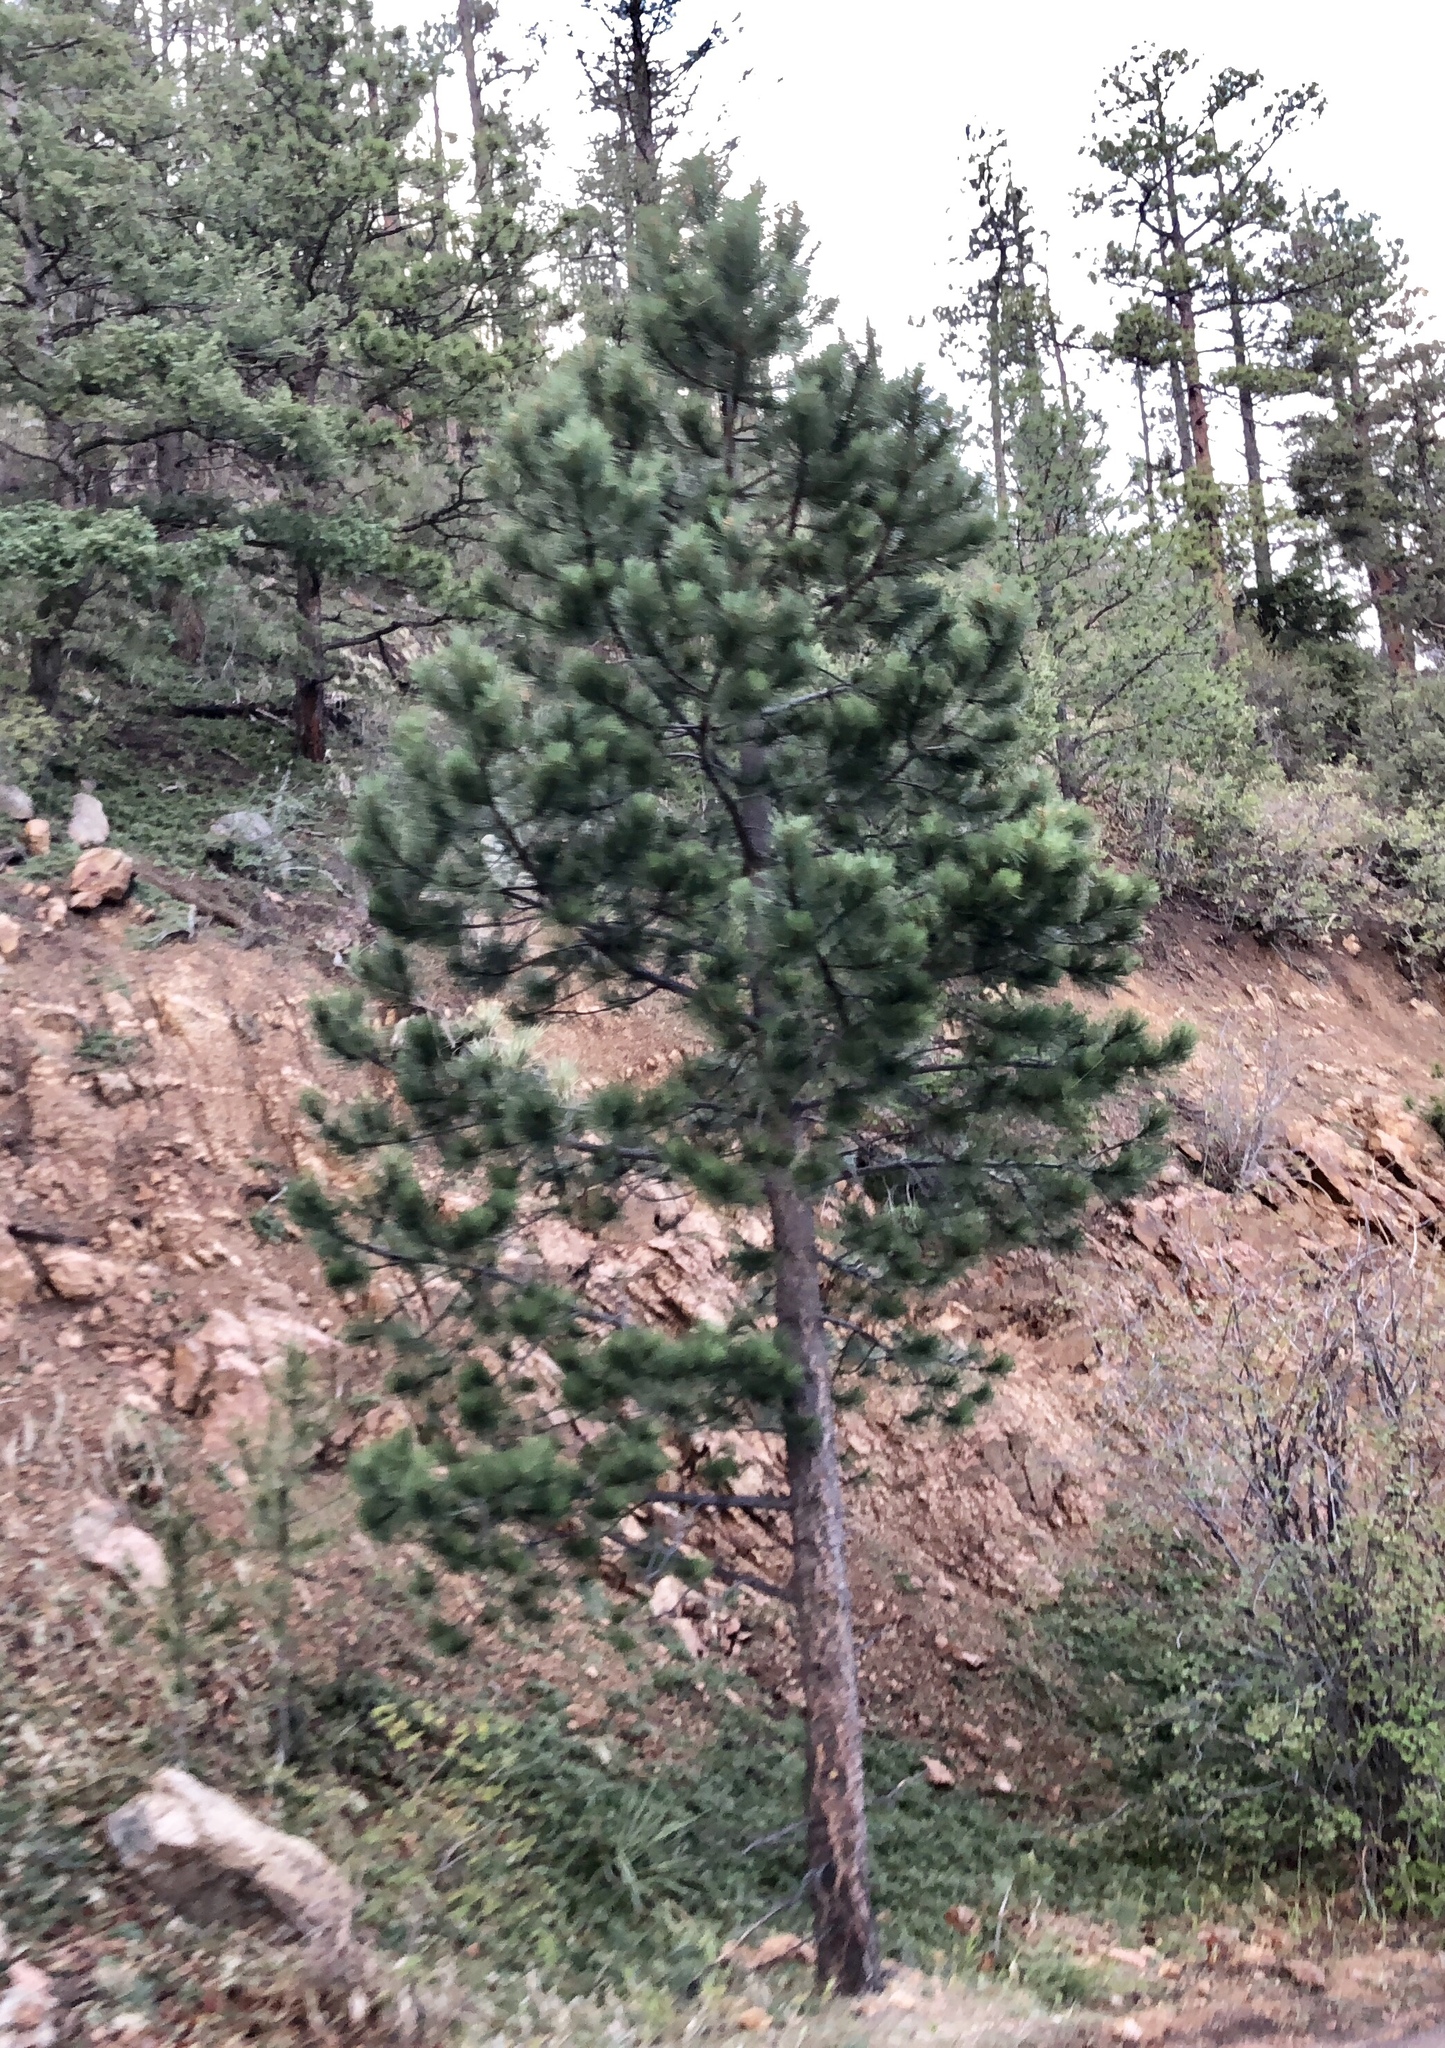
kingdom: Plantae
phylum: Tracheophyta
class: Pinopsida
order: Pinales
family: Pinaceae
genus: Pinus
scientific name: Pinus ponderosa
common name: Western yellow-pine
